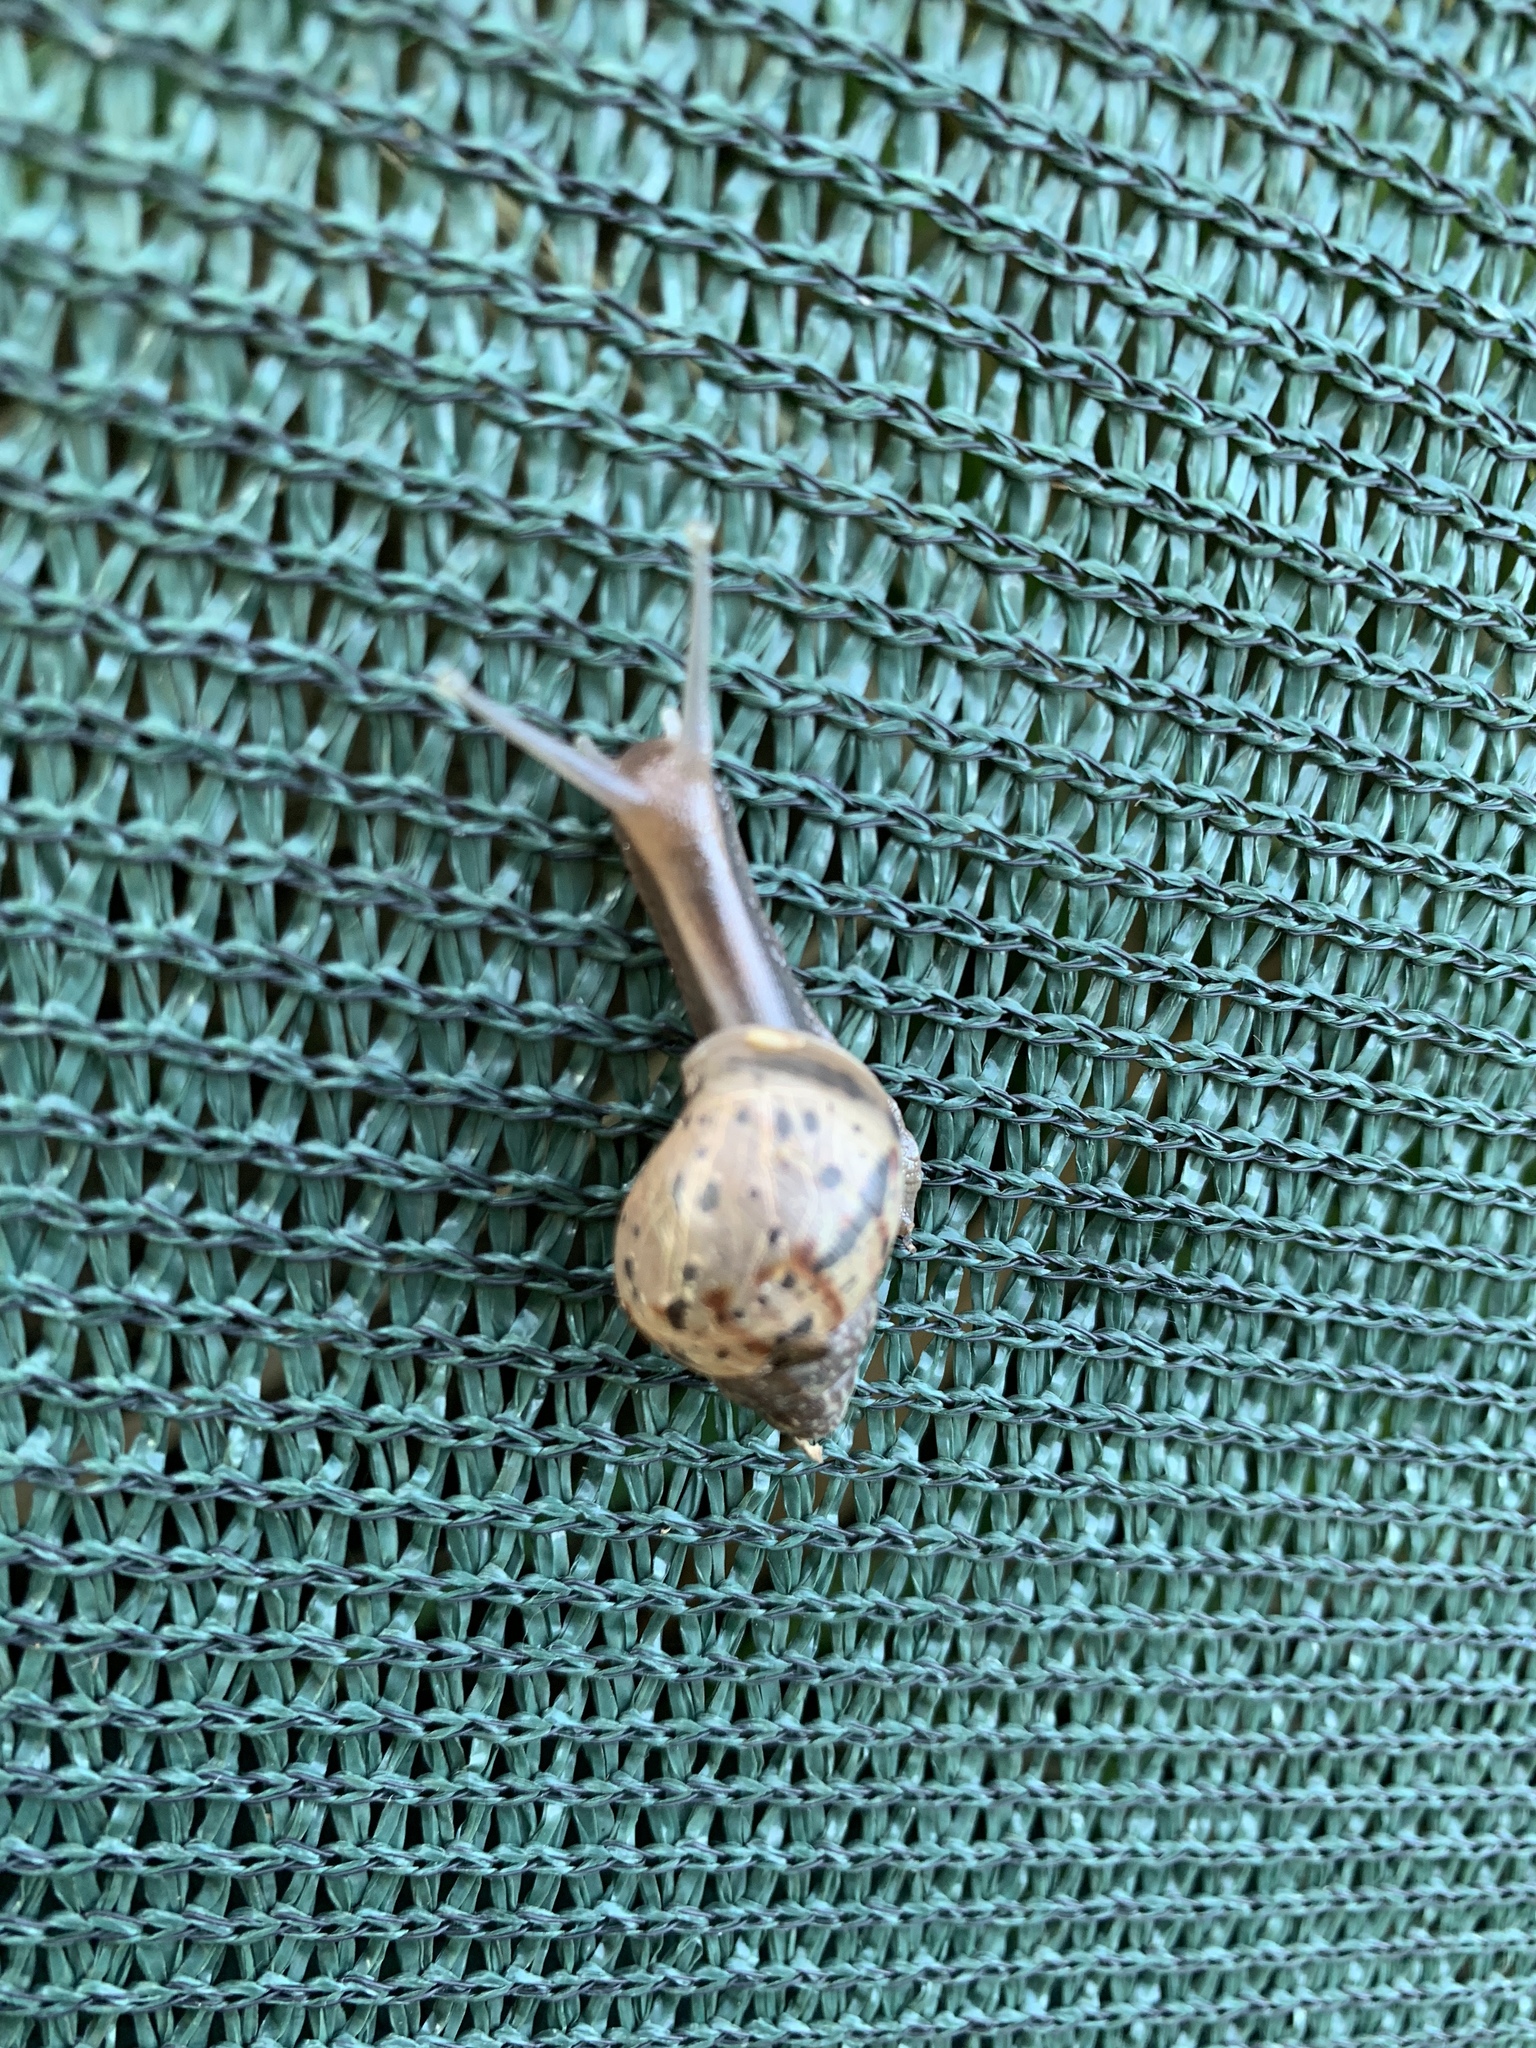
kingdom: Animalia
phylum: Mollusca
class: Gastropoda
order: Stylommatophora
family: Achatinidae
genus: Lissachatina
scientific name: Lissachatina fulica
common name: Giant african snail
